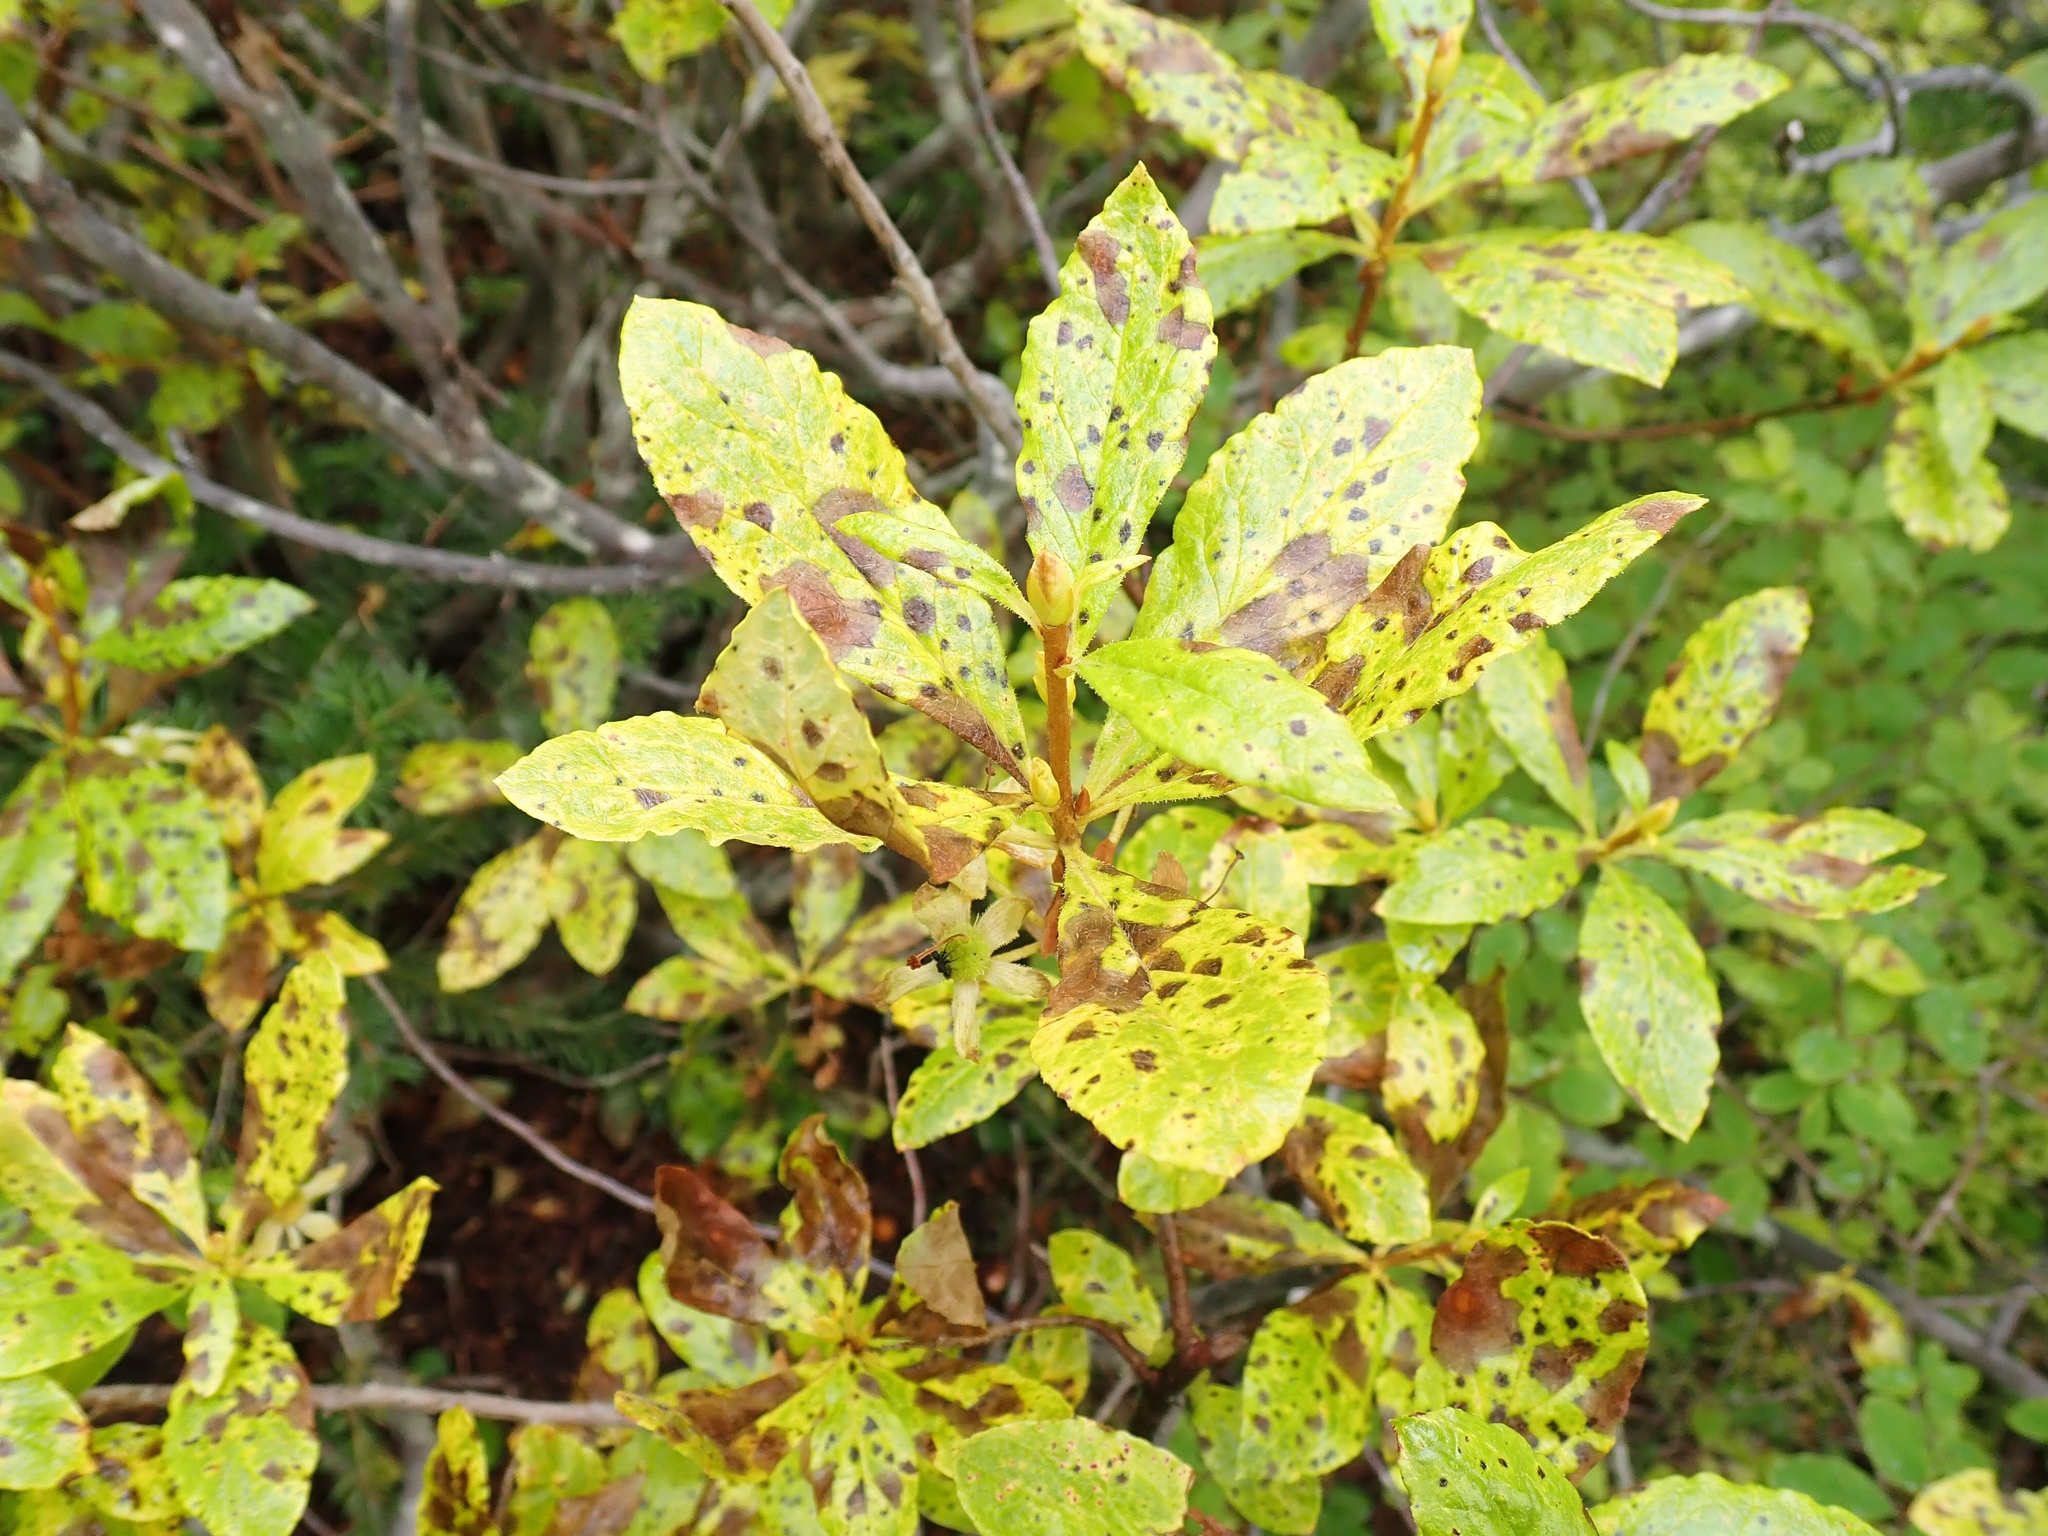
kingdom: Plantae
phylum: Tracheophyta
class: Magnoliopsida
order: Ericales
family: Ericaceae
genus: Rhododendron
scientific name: Rhododendron albiflorum
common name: White rhododendron
